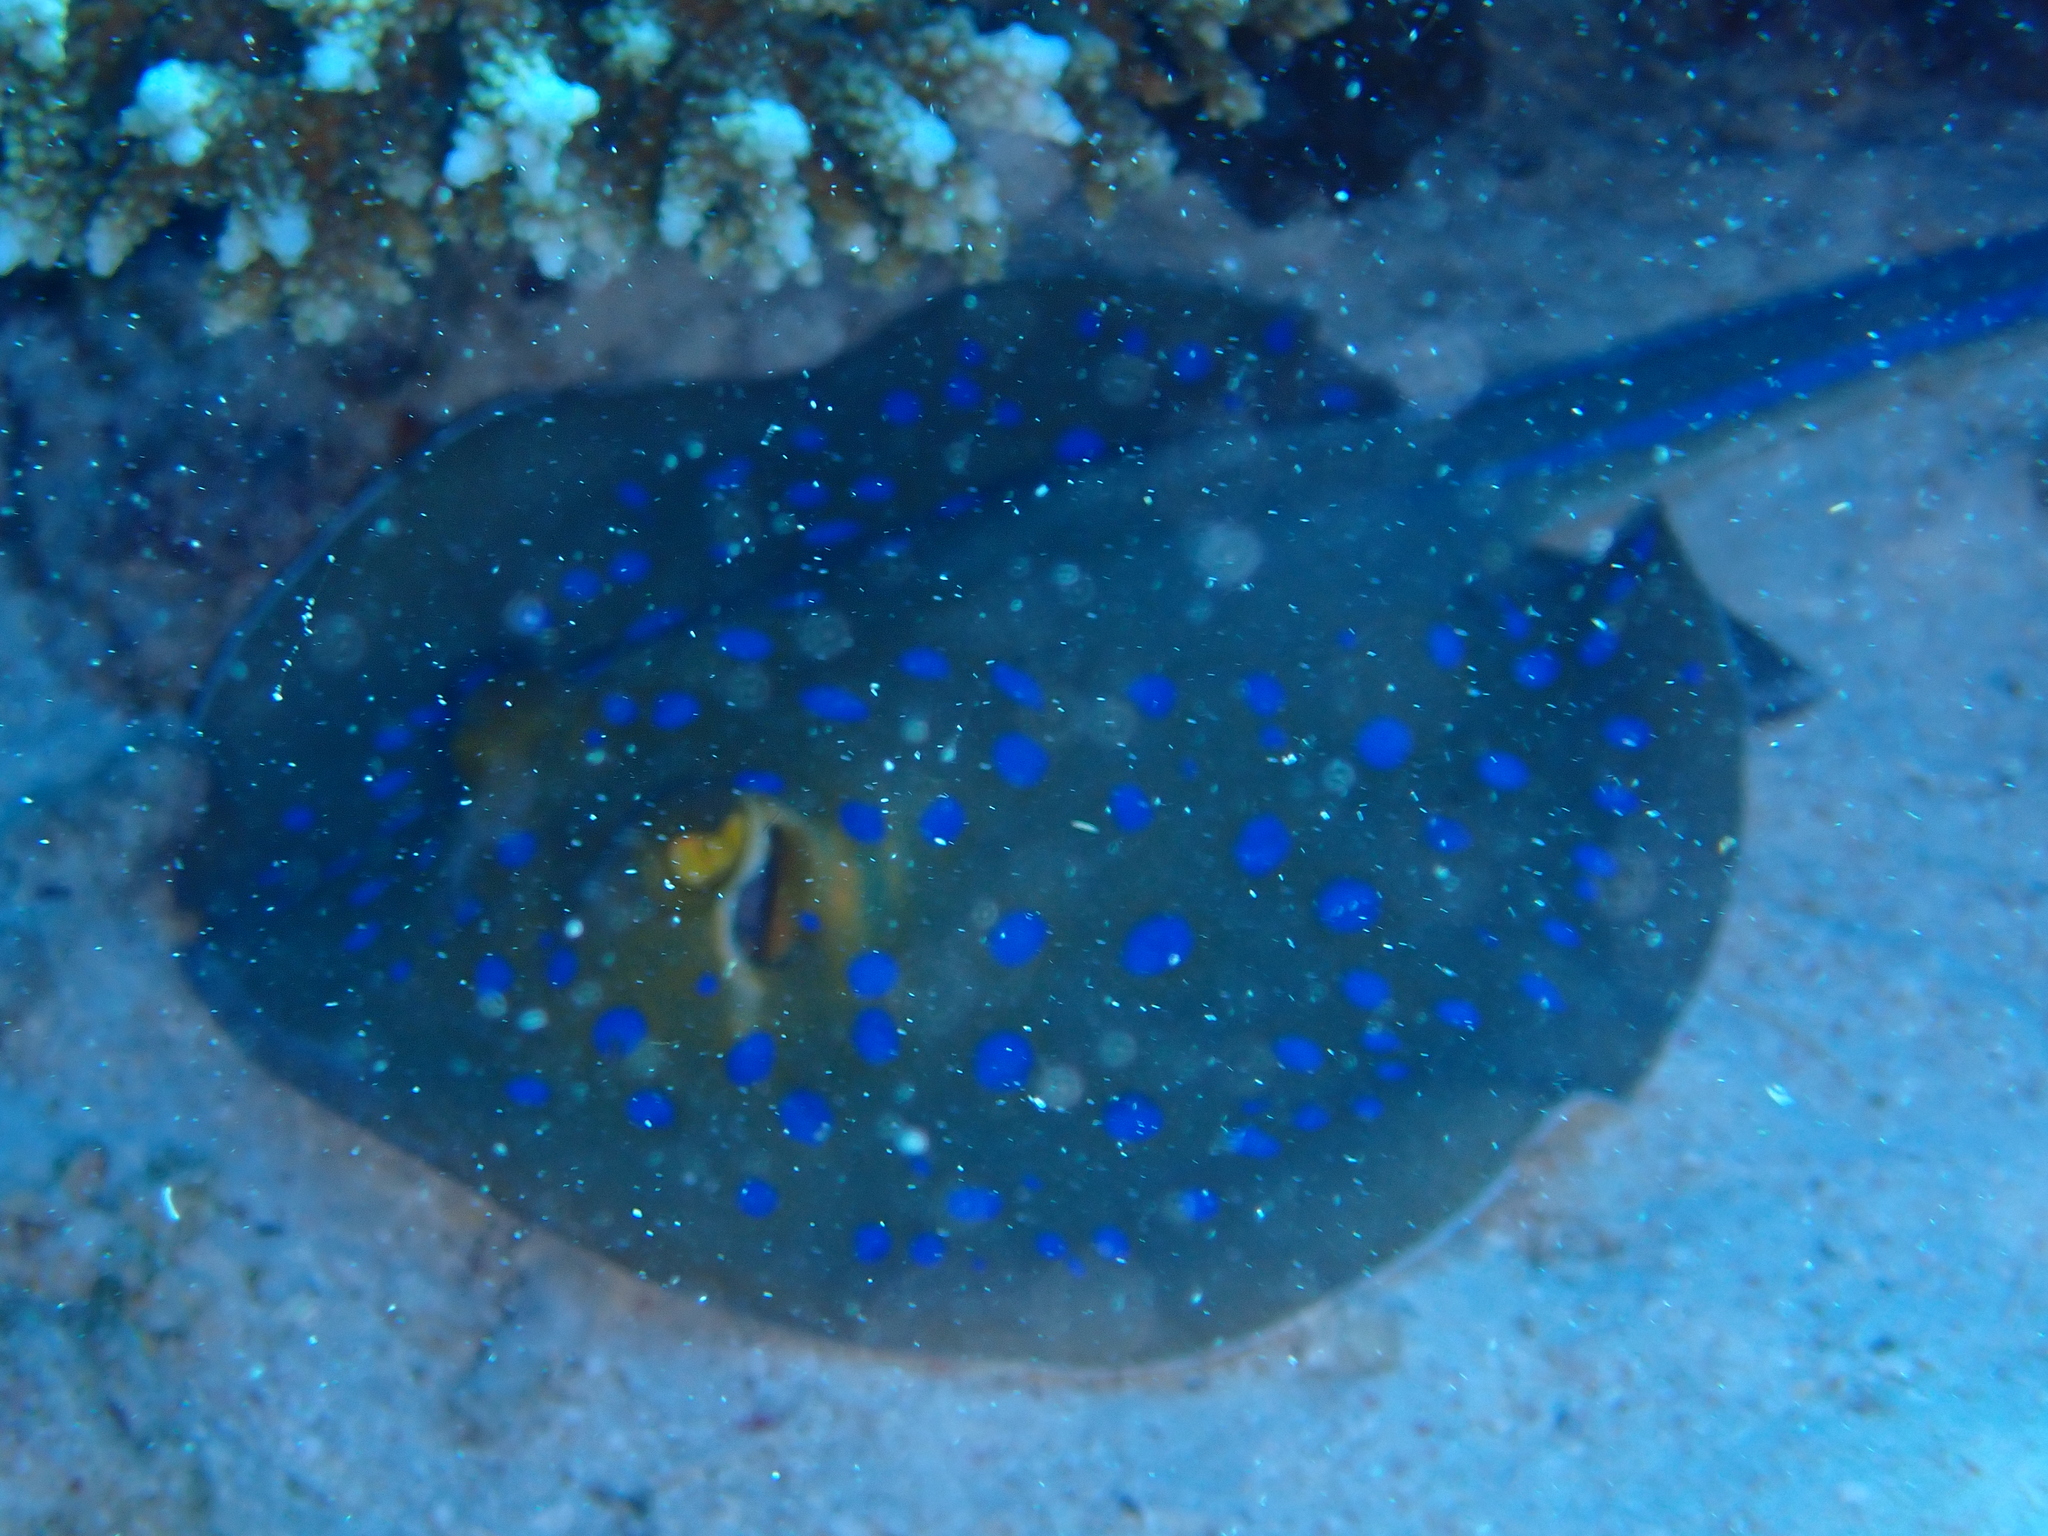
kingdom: Animalia
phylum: Chordata
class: Elasmobranchii
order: Myliobatiformes
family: Dasyatidae
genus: Taeniura
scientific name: Taeniura lymma
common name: Bluespotted ribbontail ray
